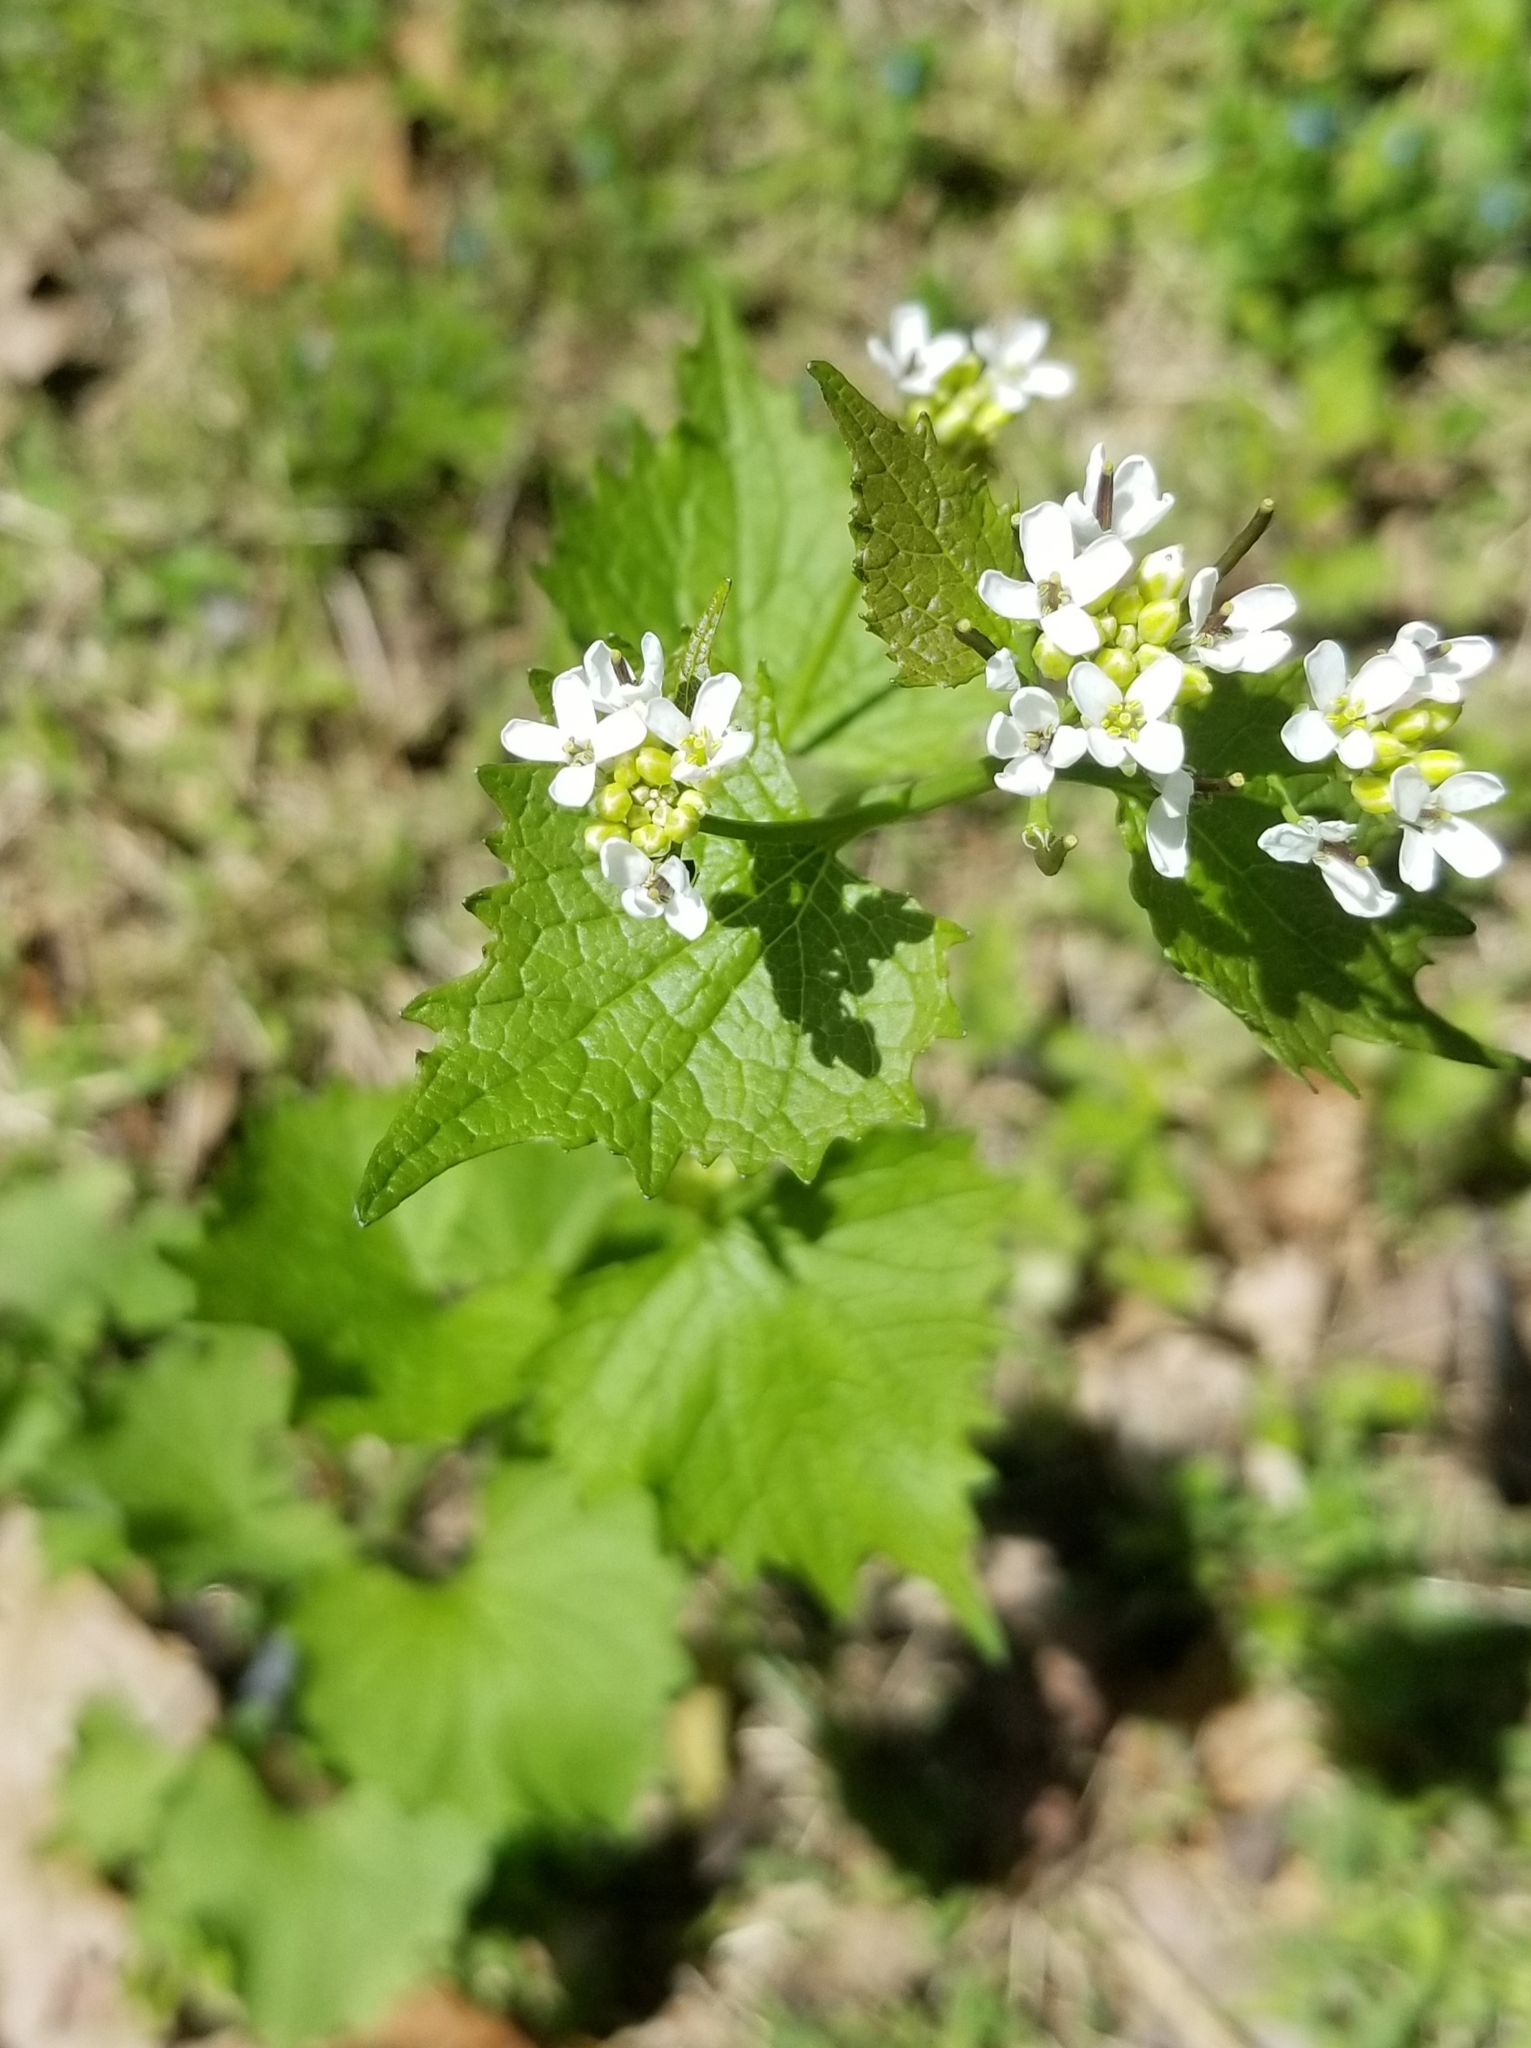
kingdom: Plantae
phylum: Tracheophyta
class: Magnoliopsida
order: Brassicales
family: Brassicaceae
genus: Alliaria
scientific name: Alliaria petiolata
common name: Garlic mustard
